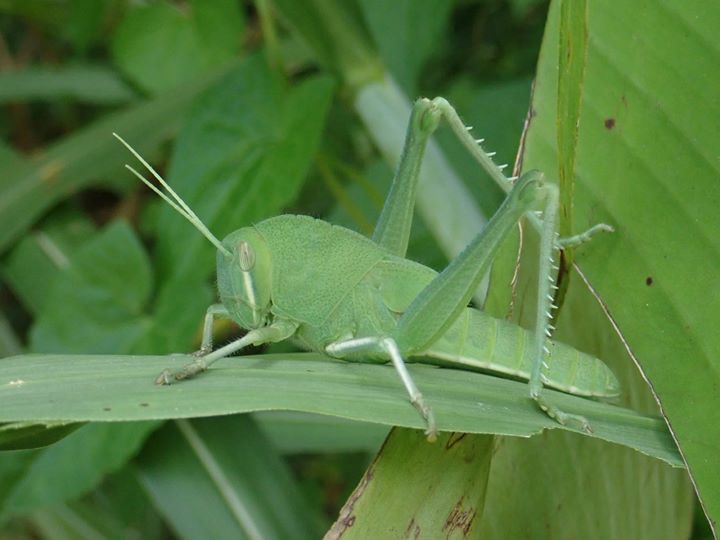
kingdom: Animalia
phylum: Arthropoda
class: Insecta
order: Orthoptera
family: Acrididae
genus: Chondracris
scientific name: Chondracris rosea
